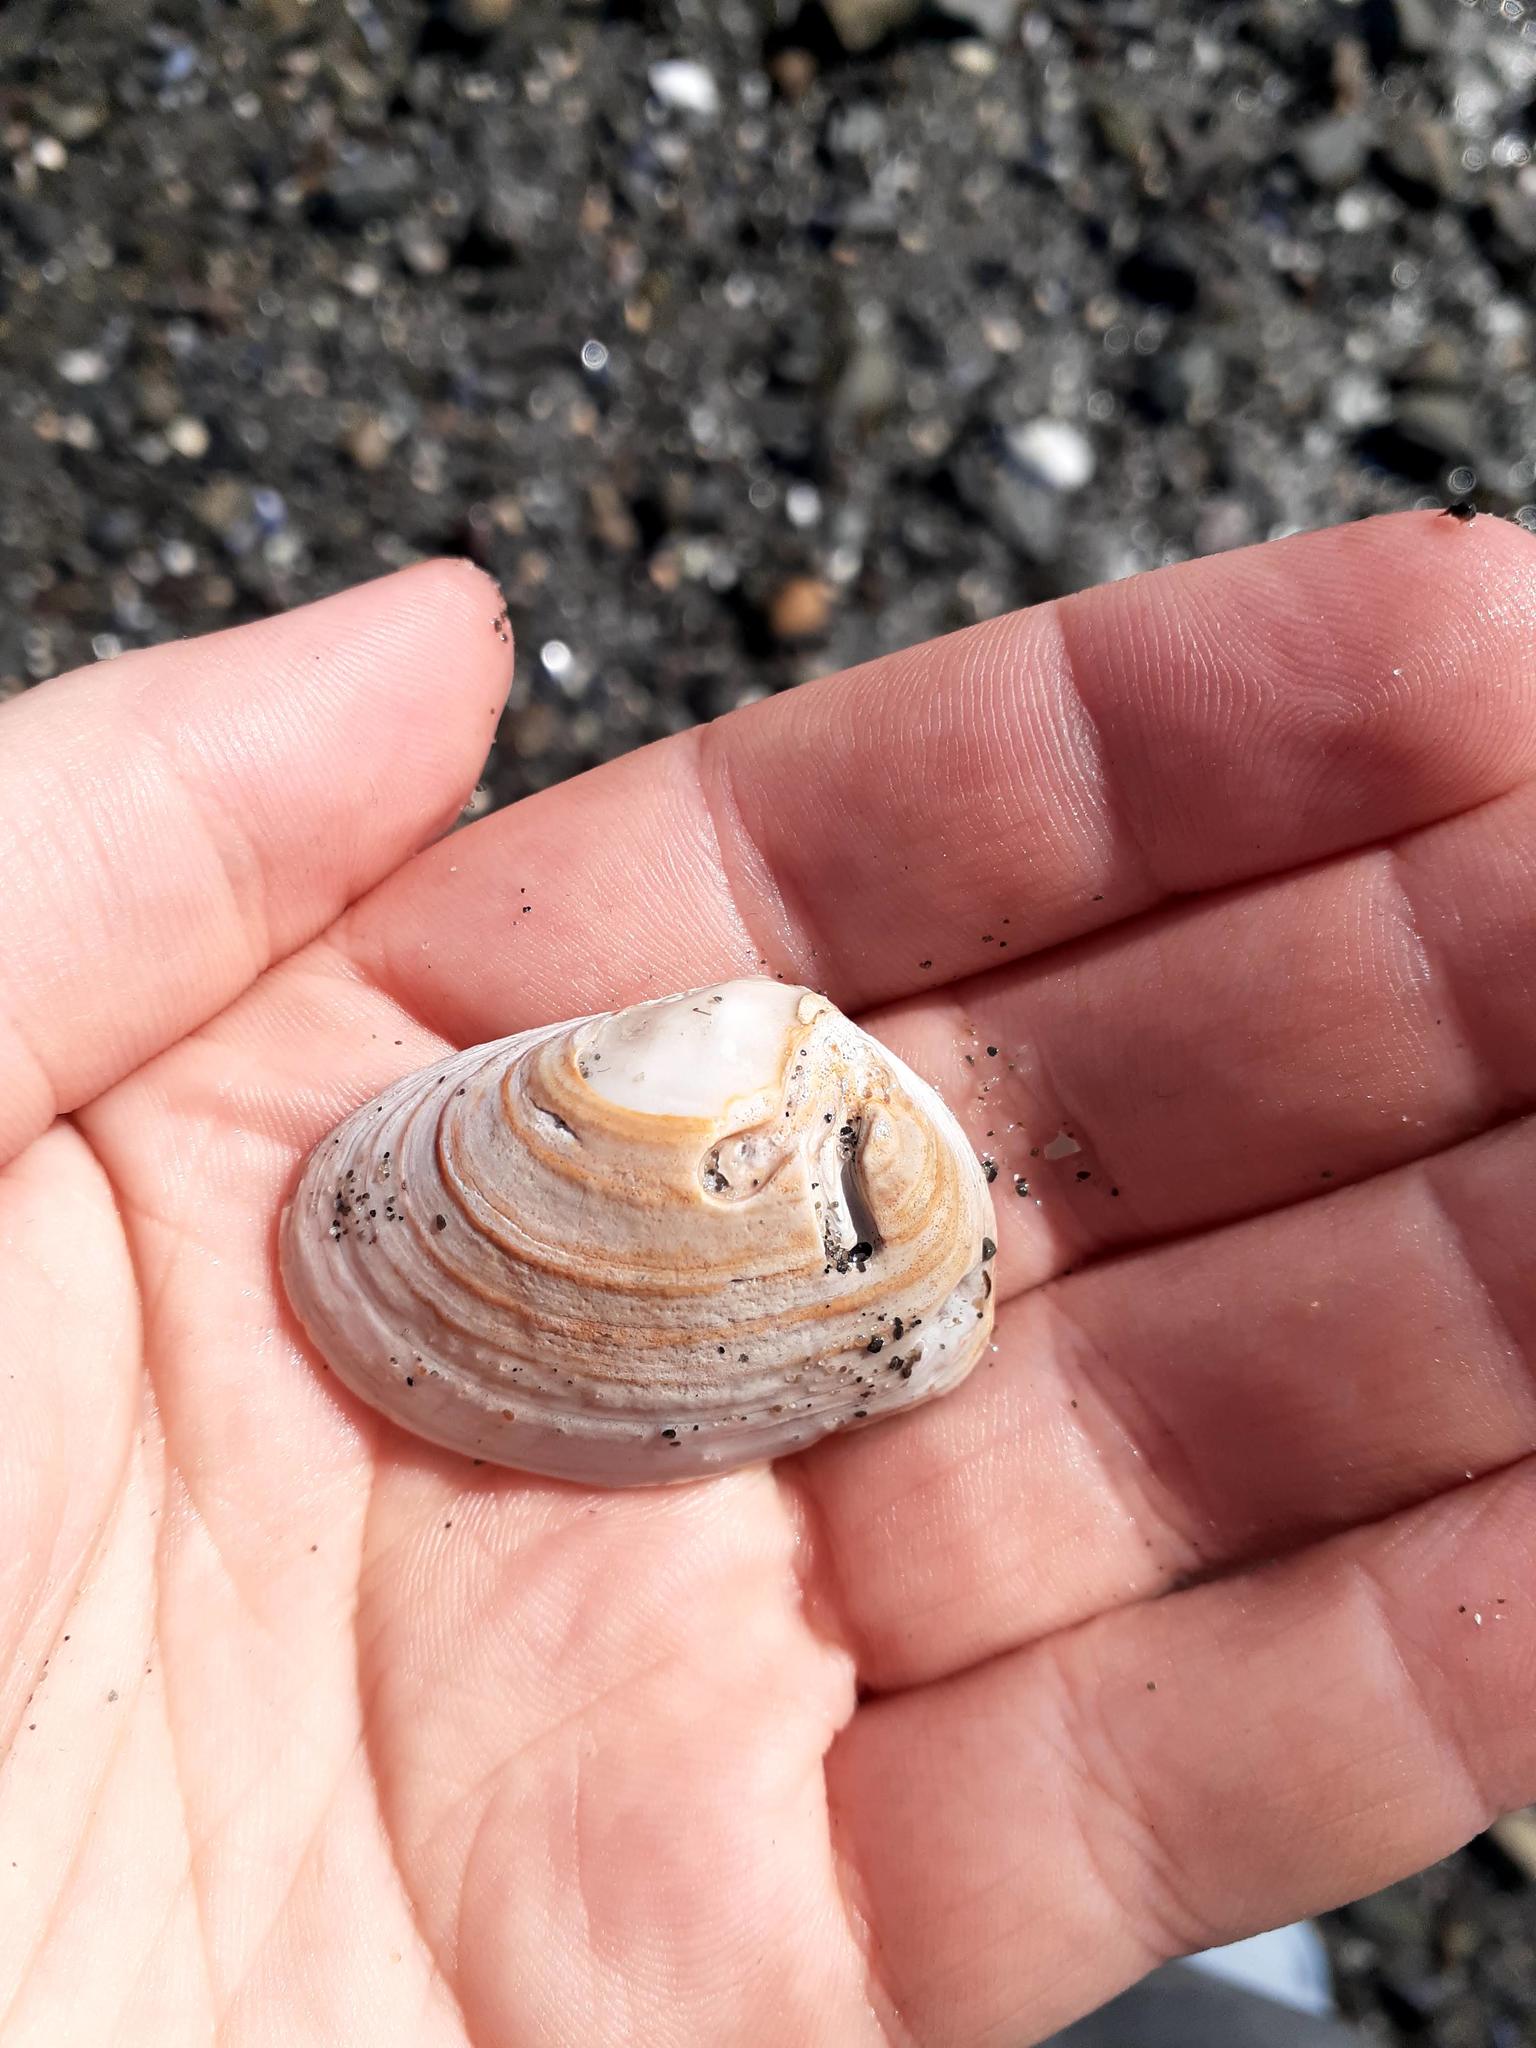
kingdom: Animalia
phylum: Mollusca
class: Bivalvia
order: Venerida
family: Mesodesmatidae
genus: Mesodesma
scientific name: Mesodesma arctatum
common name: Compressed clam
